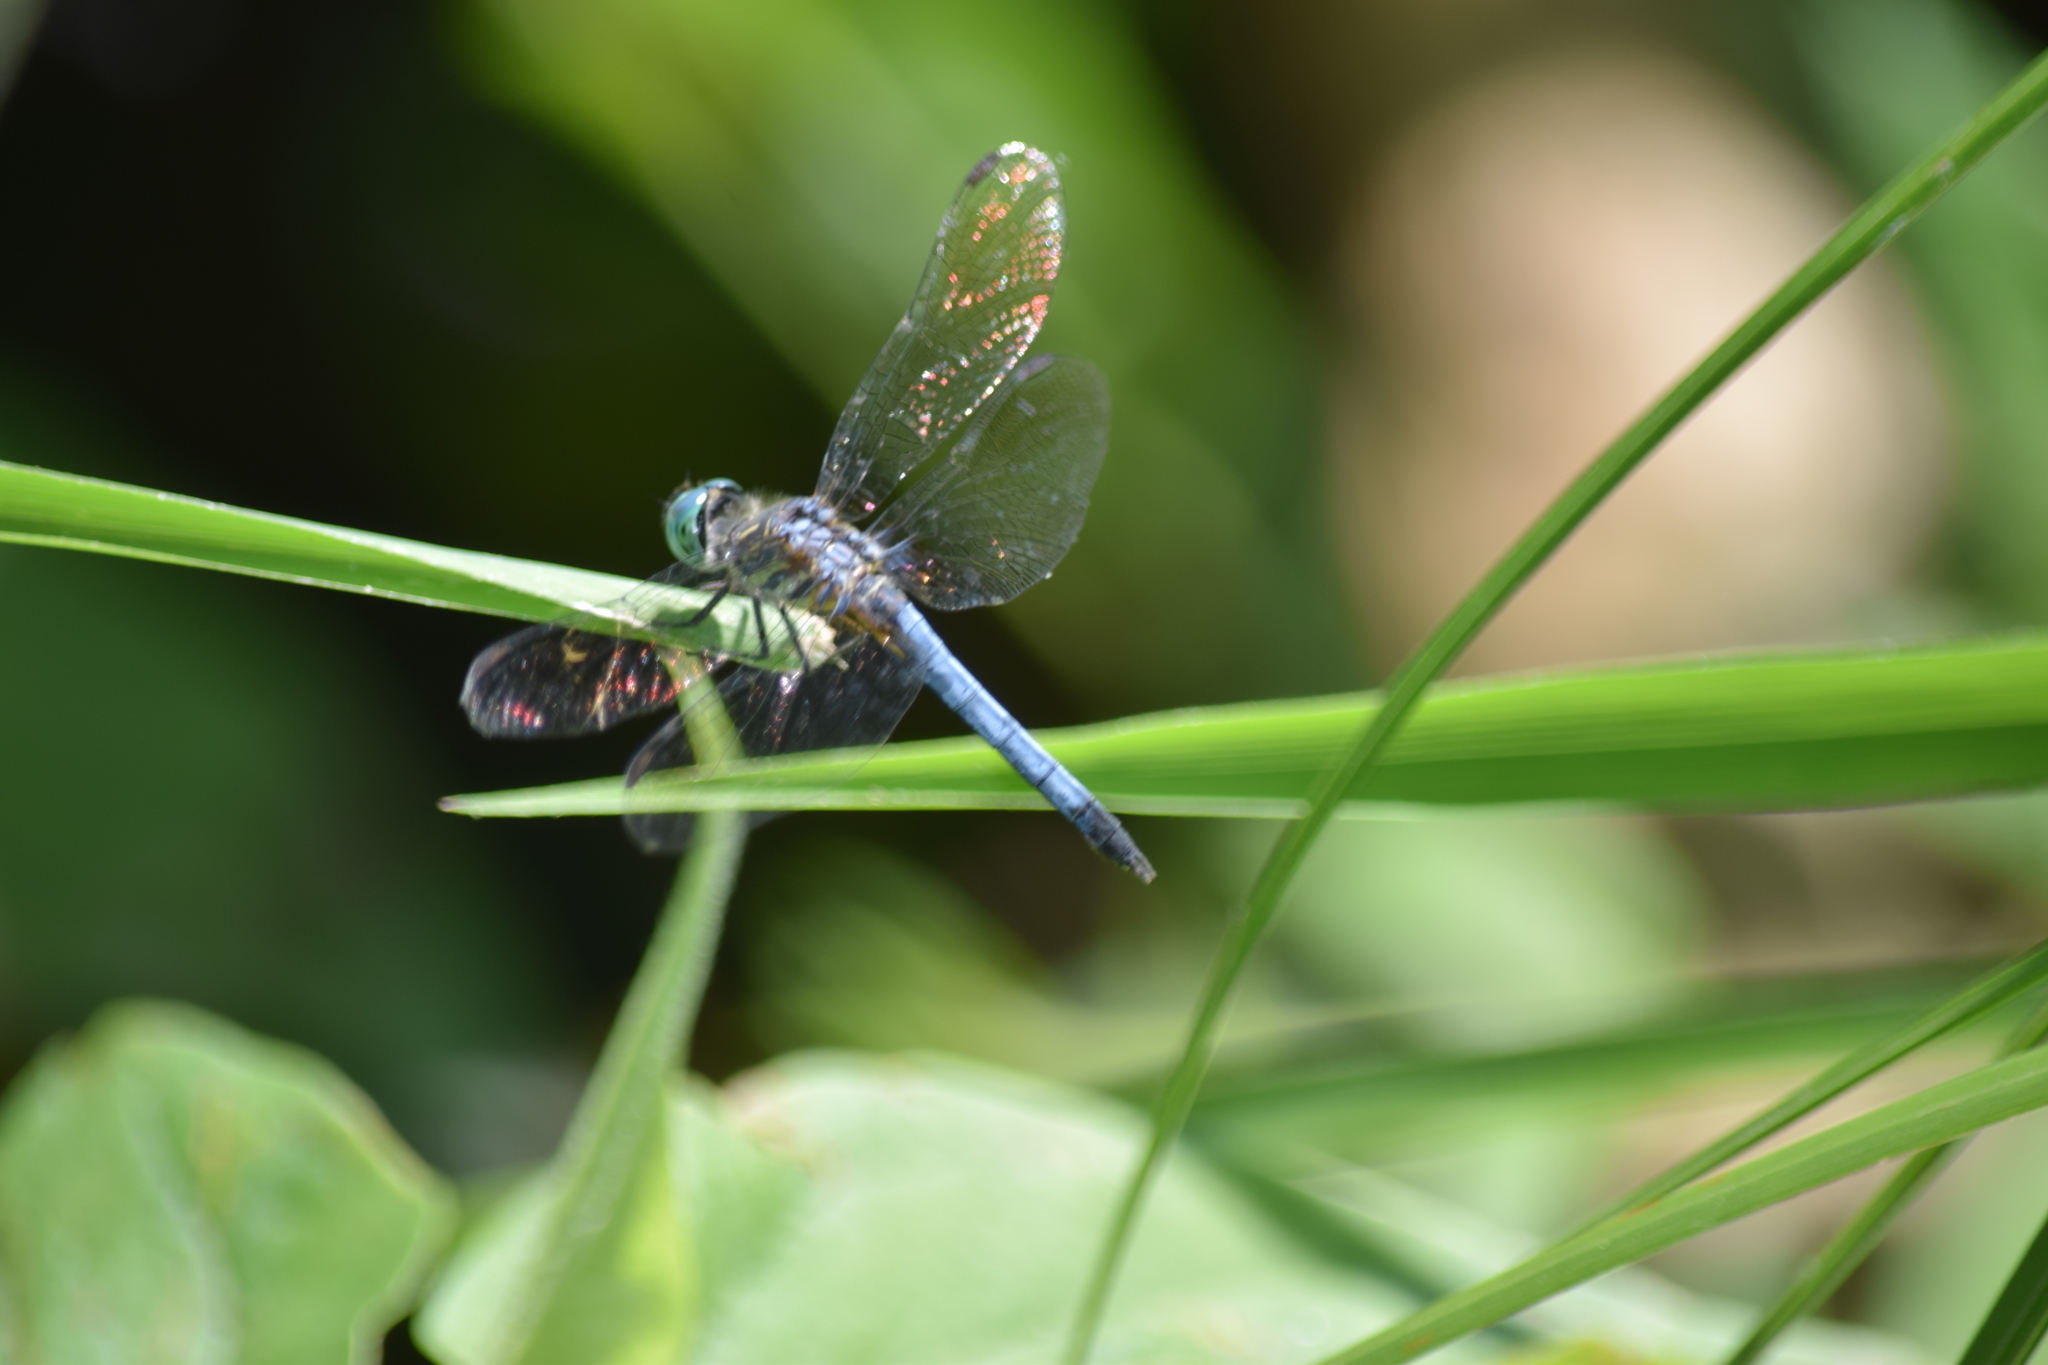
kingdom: Animalia
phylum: Arthropoda
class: Insecta
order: Odonata
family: Libellulidae
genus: Pachydiplax
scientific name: Pachydiplax longipennis
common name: Blue dasher
